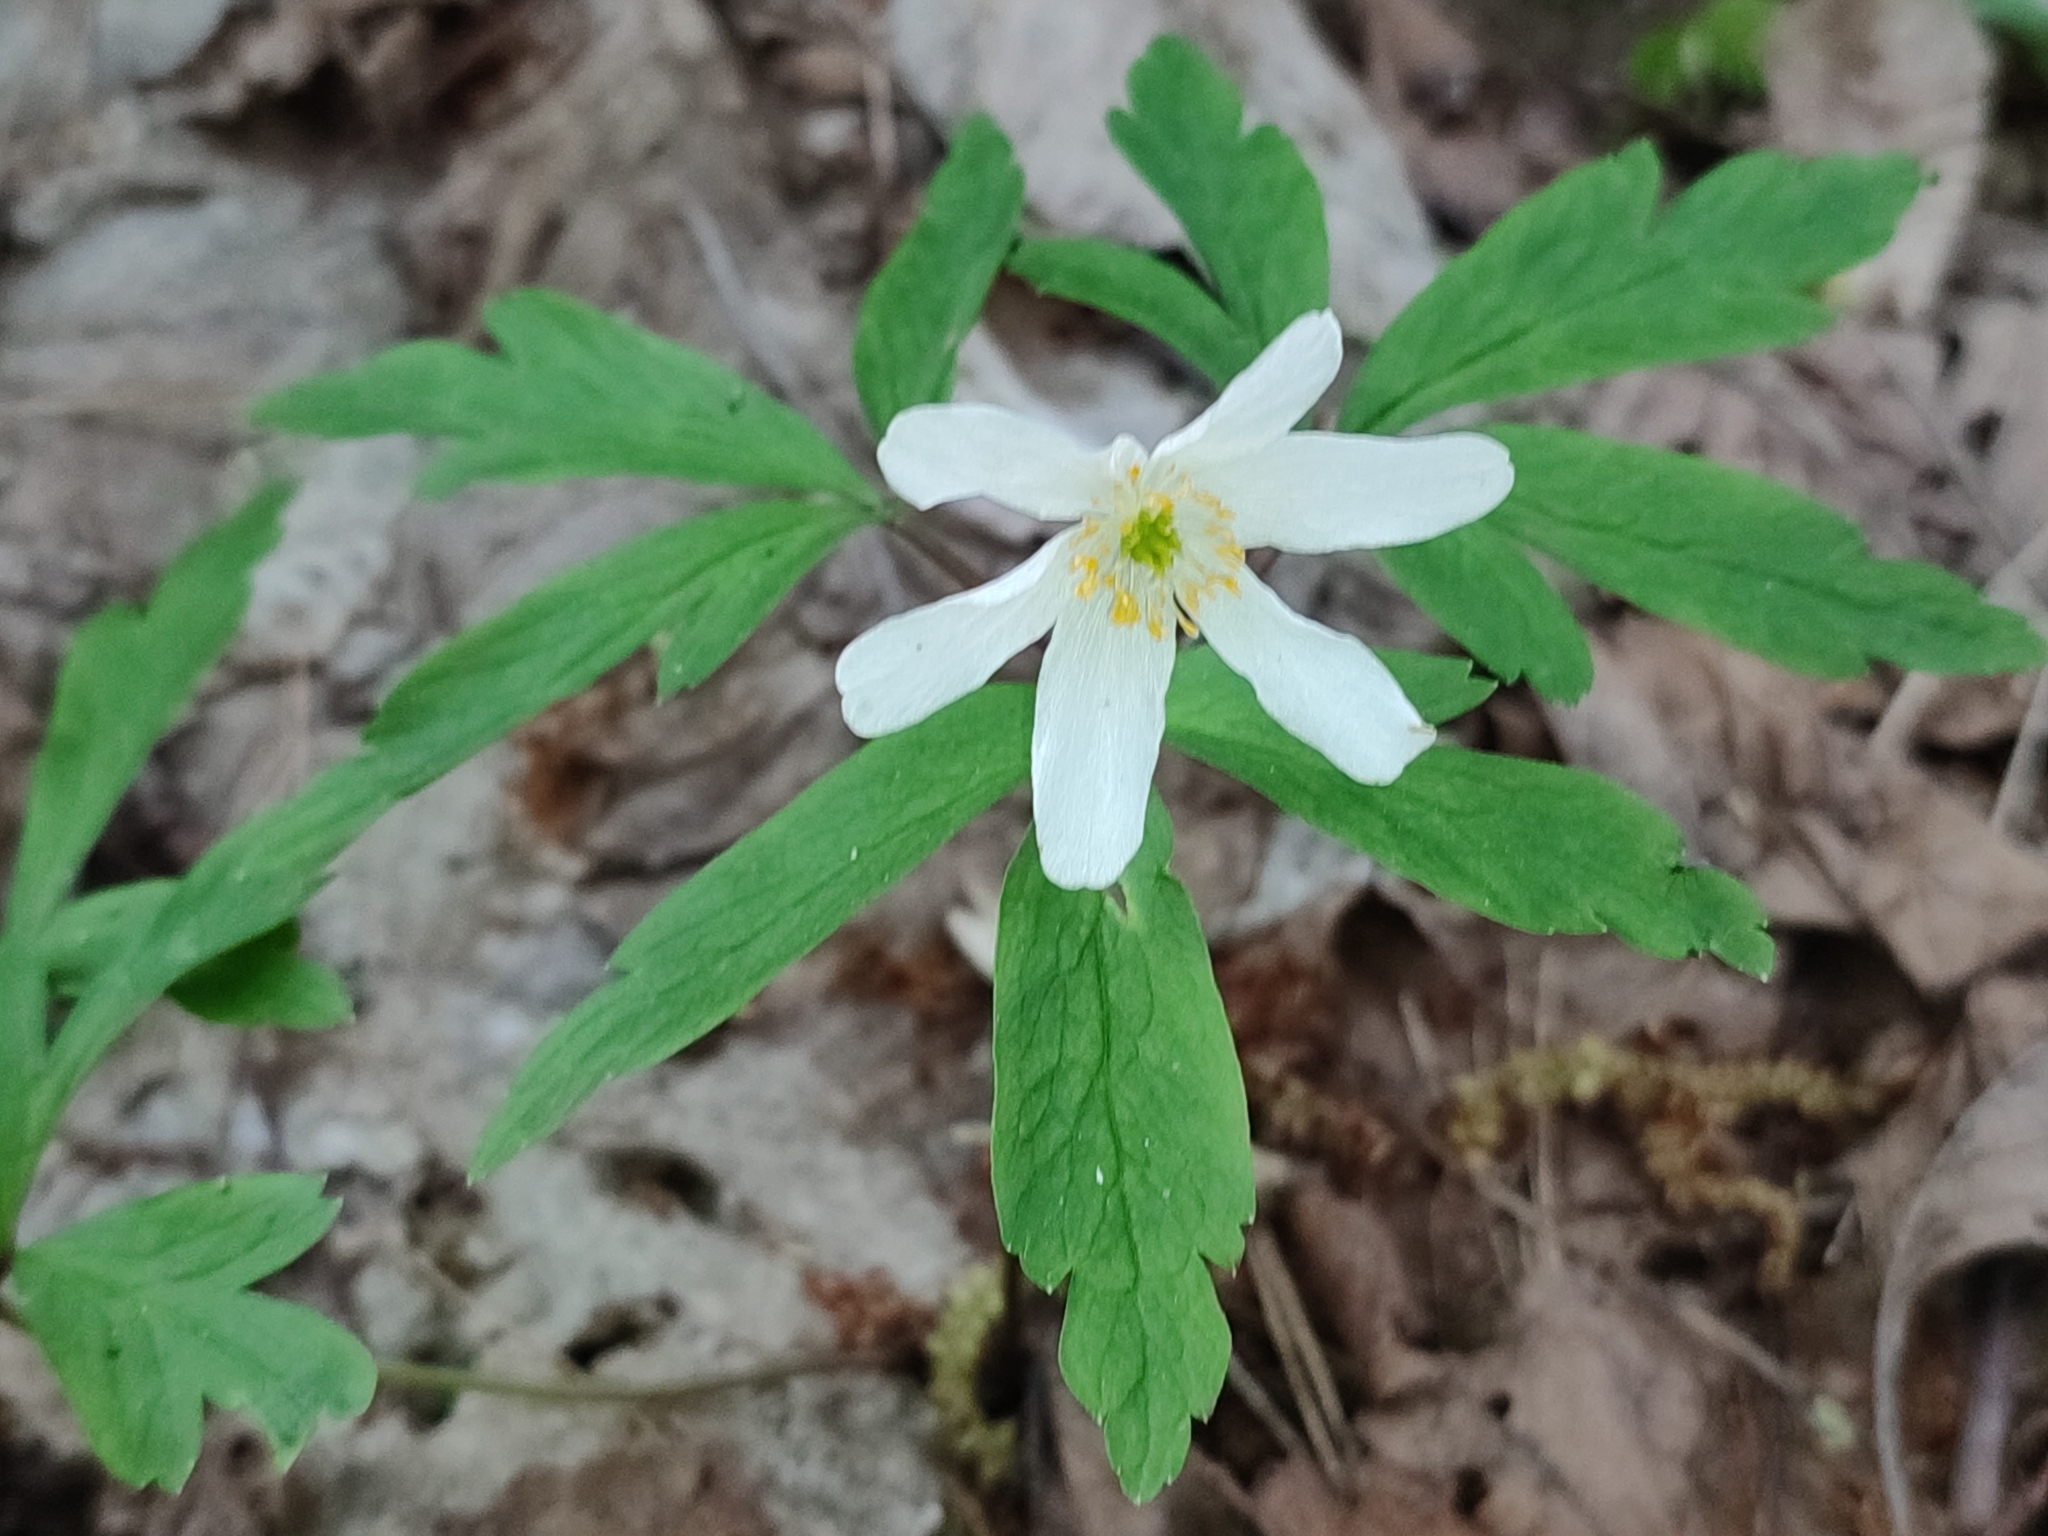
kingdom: Plantae
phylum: Tracheophyta
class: Magnoliopsida
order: Ranunculales
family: Ranunculaceae
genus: Anemone
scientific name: Anemone nemorosa
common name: Wood anemone
